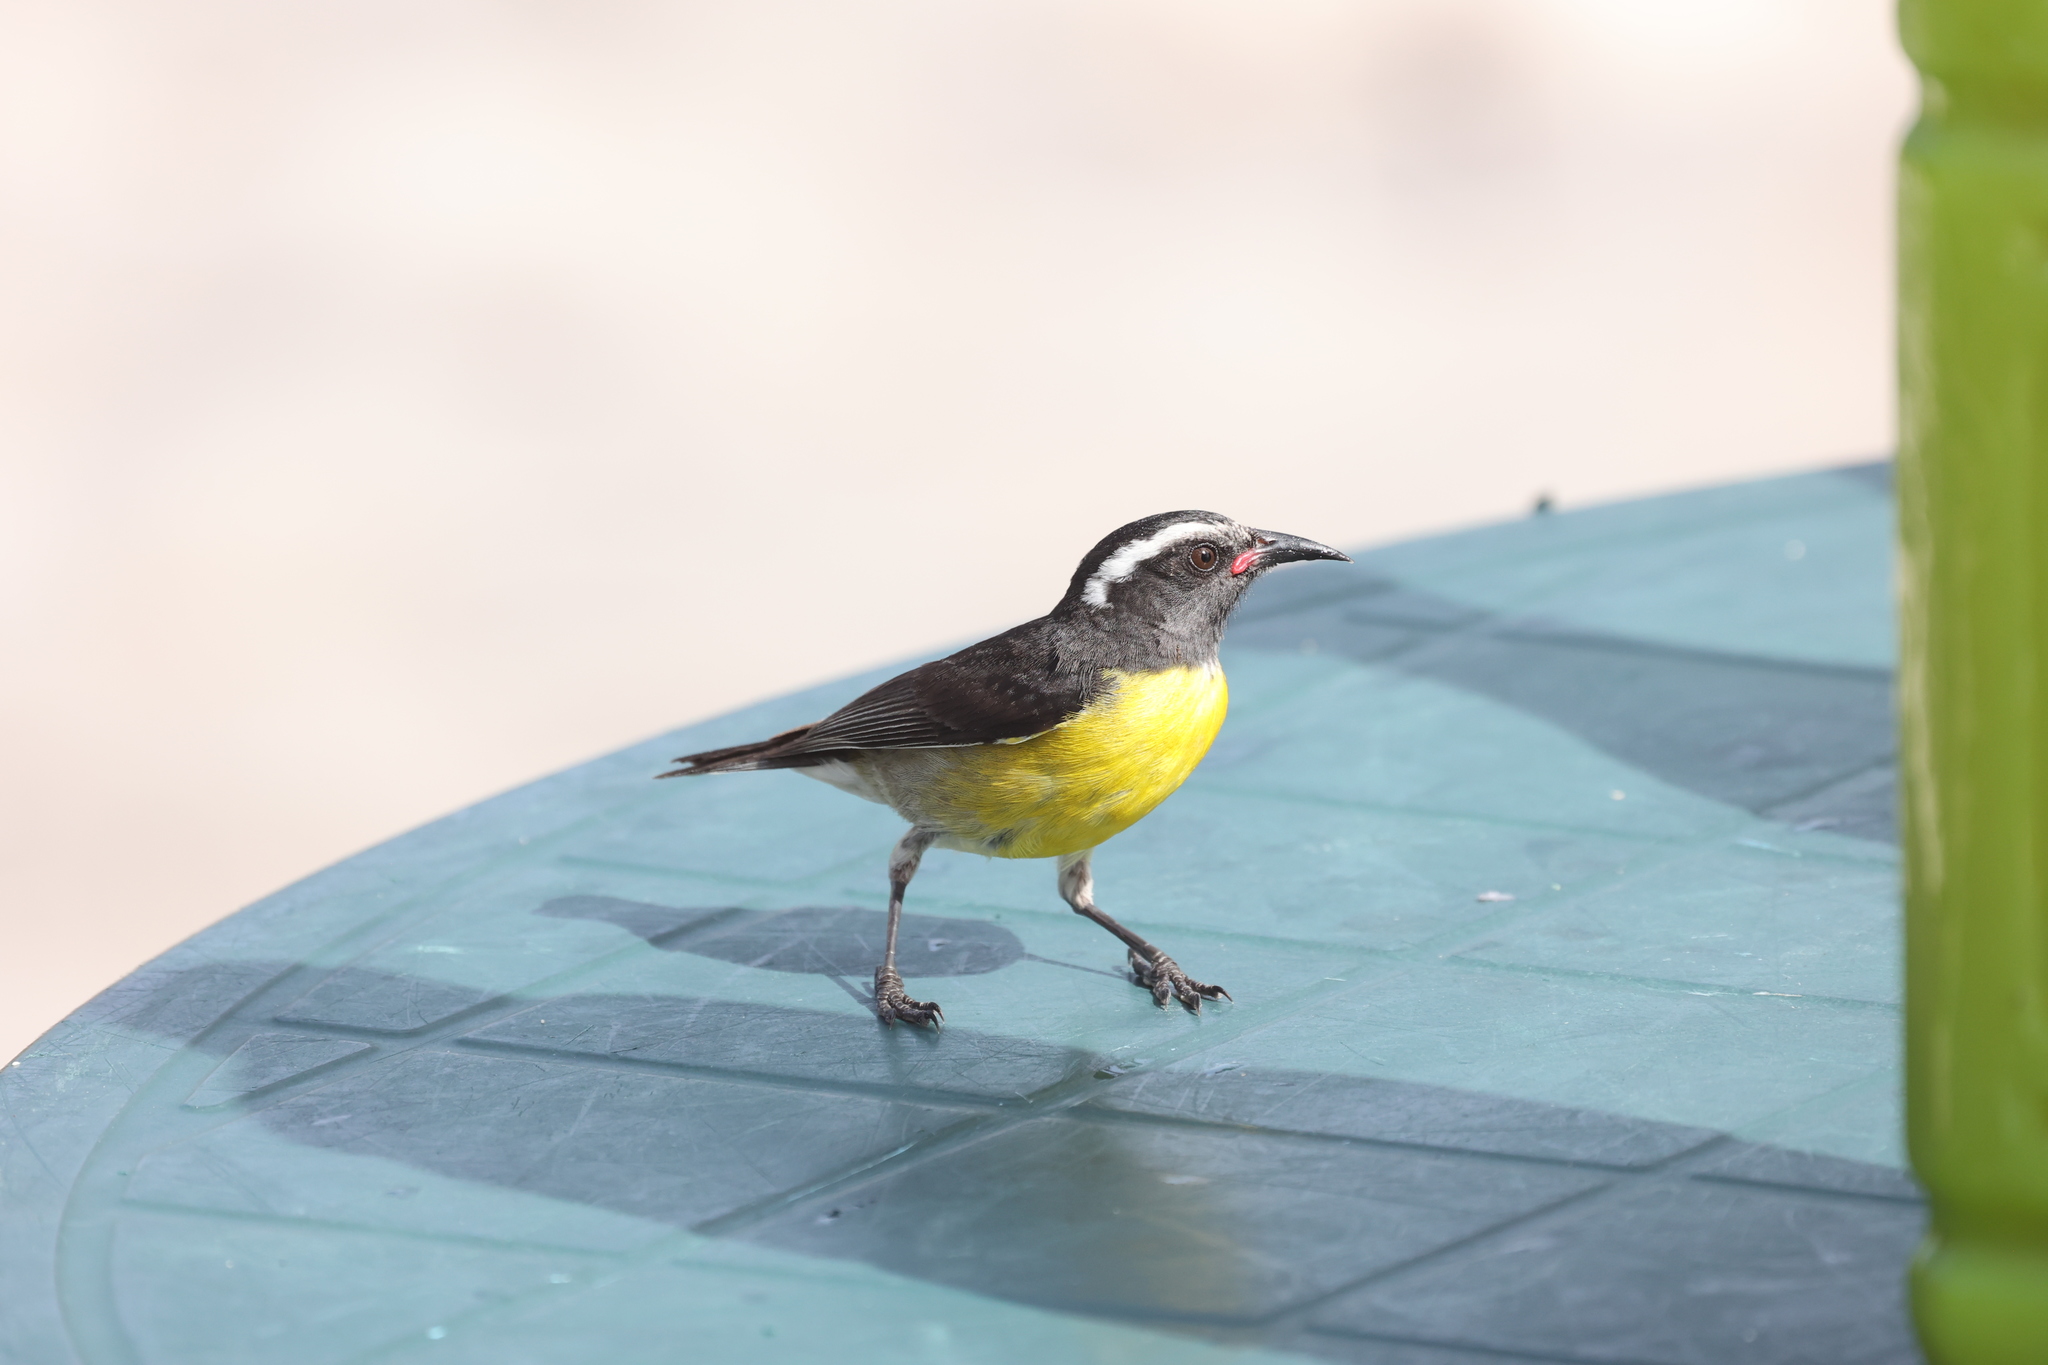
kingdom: Animalia
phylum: Chordata
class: Aves
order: Passeriformes
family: Thraupidae
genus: Coereba
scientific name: Coereba flaveola
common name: Bananaquit
